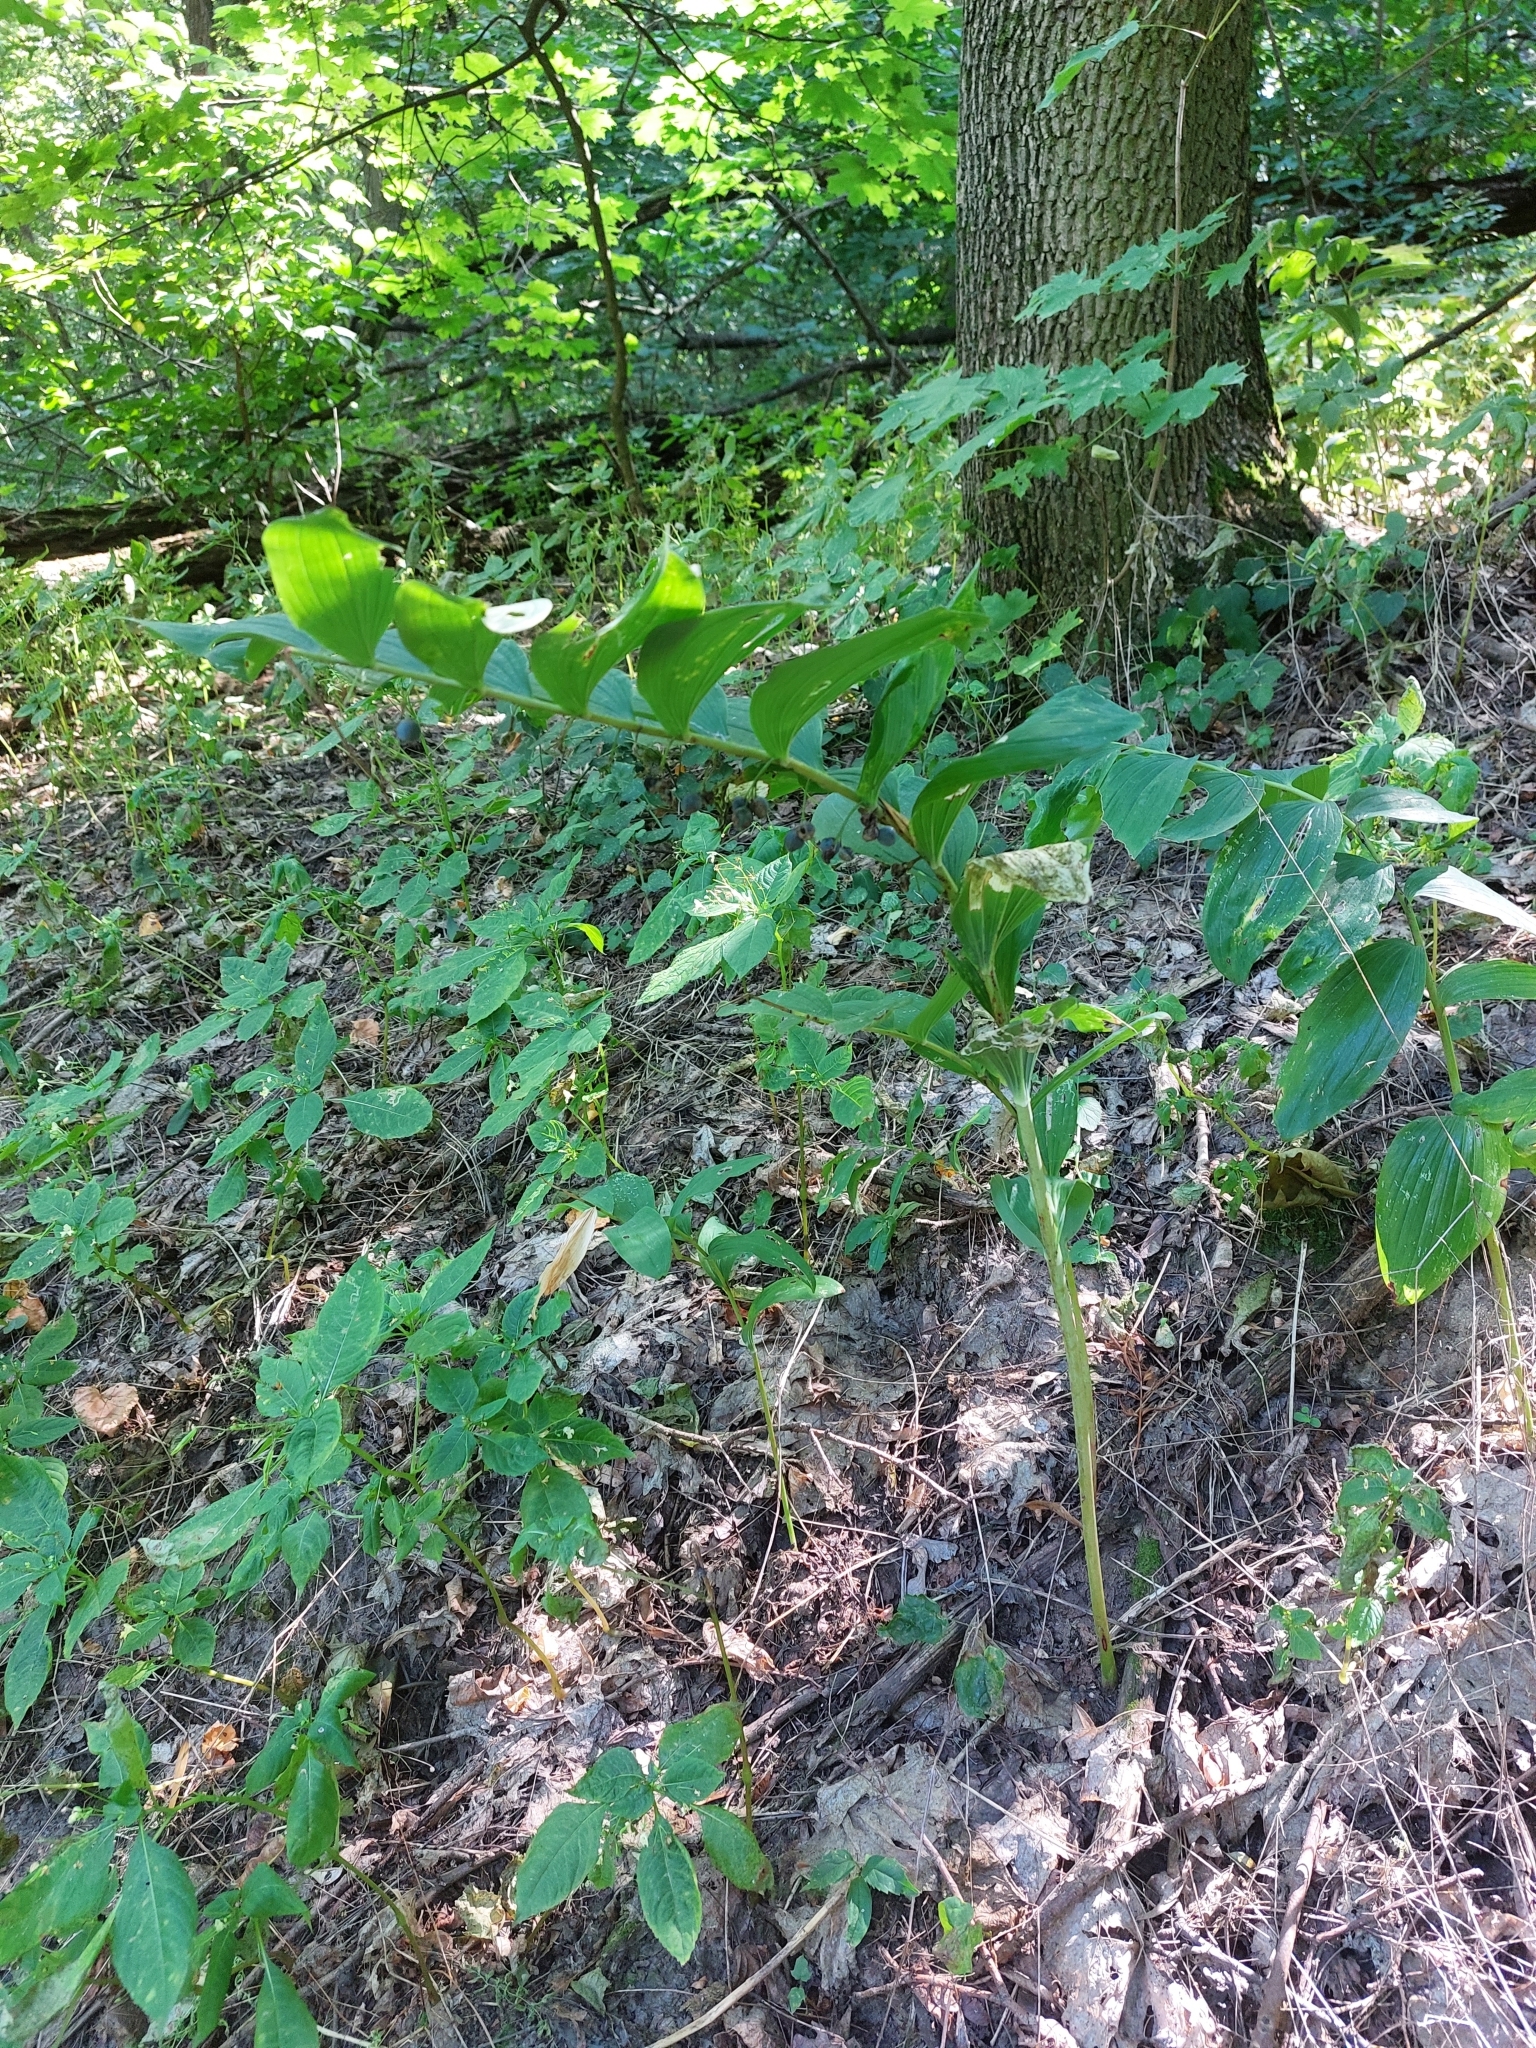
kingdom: Plantae
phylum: Tracheophyta
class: Liliopsida
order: Asparagales
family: Asparagaceae
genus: Polygonatum
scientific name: Polygonatum multiflorum
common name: Solomon's-seal
